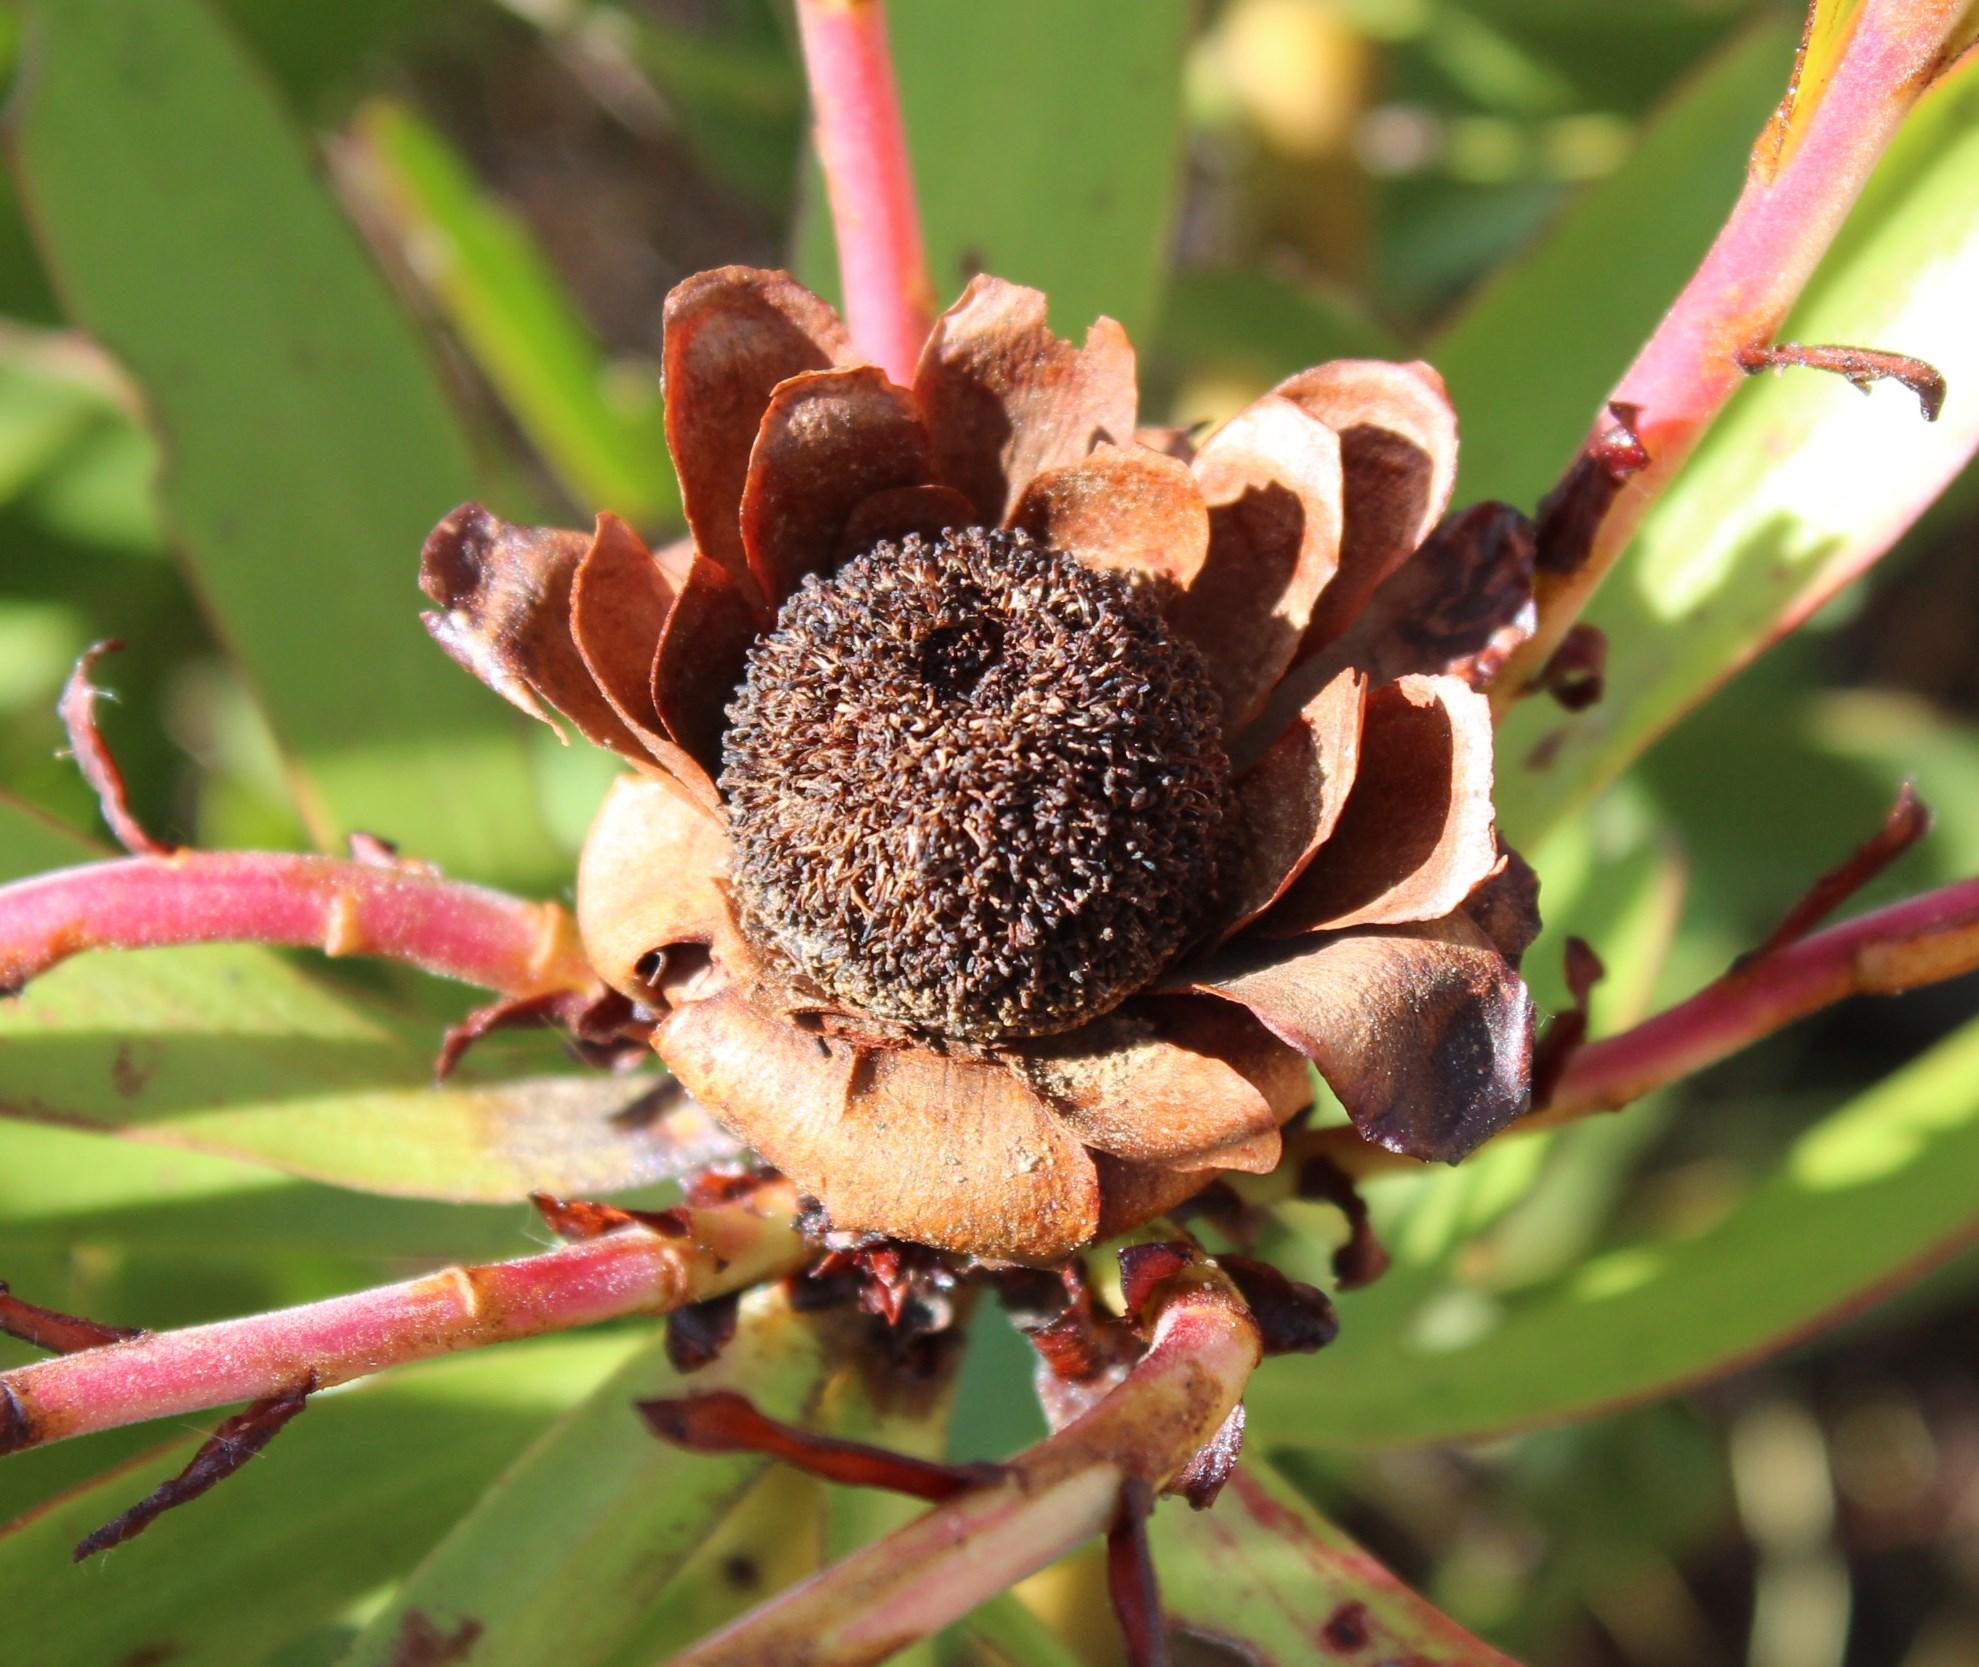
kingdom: Plantae
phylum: Tracheophyta
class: Magnoliopsida
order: Proteales
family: Proteaceae
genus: Leucadendron
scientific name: Leucadendron microcephalum
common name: Oilbract conebush
